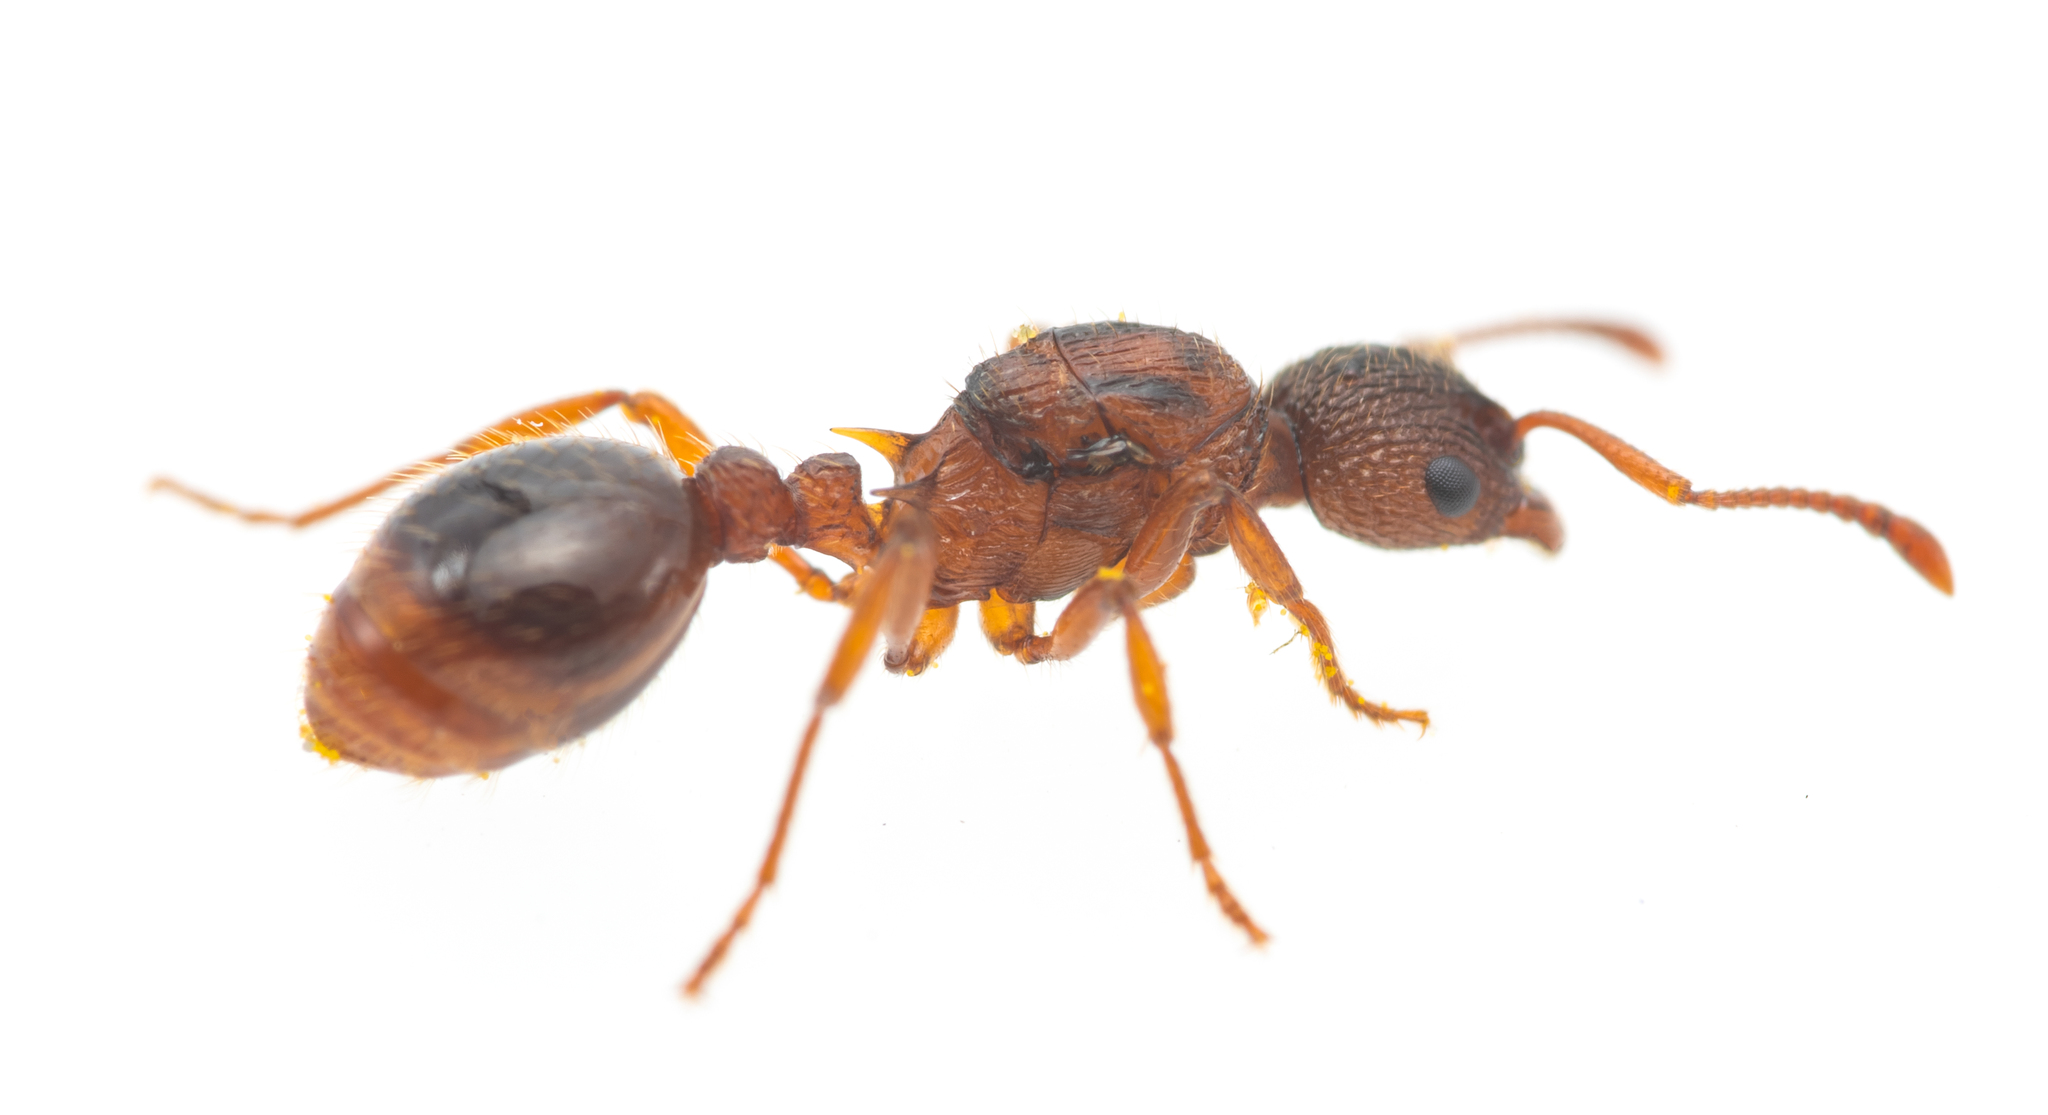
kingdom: Animalia
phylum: Arthropoda
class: Insecta
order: Hymenoptera
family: Formicidae
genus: Myrmica
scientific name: Myrmica aloba
